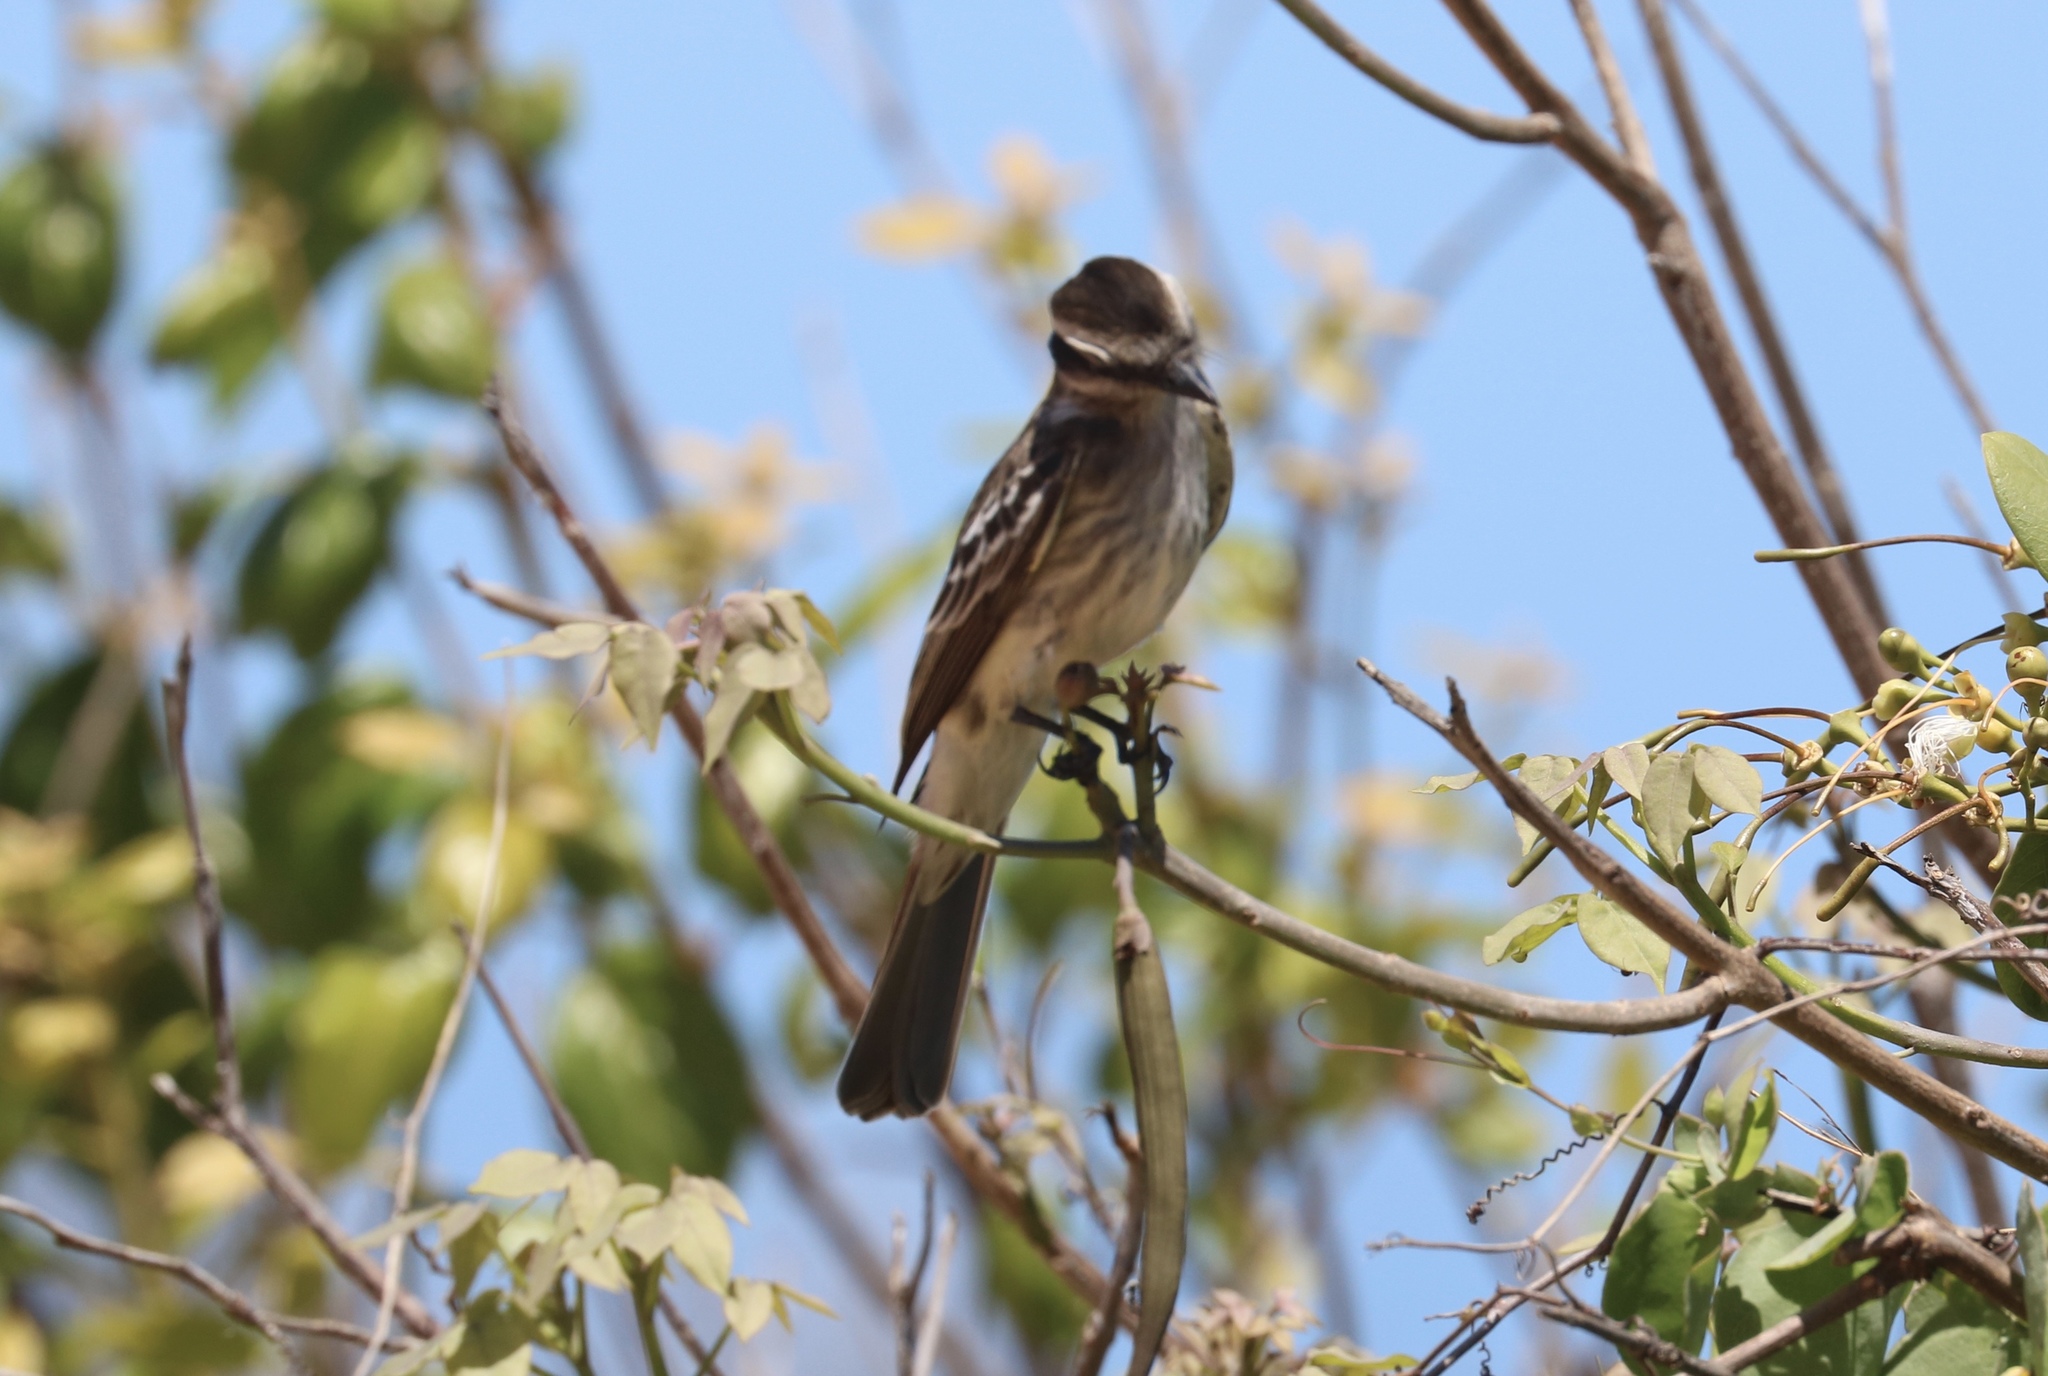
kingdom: Animalia
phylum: Chordata
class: Aves
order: Passeriformes
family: Tyrannidae
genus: Empidonomus
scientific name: Empidonomus varius
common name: Variegated flycatcher
